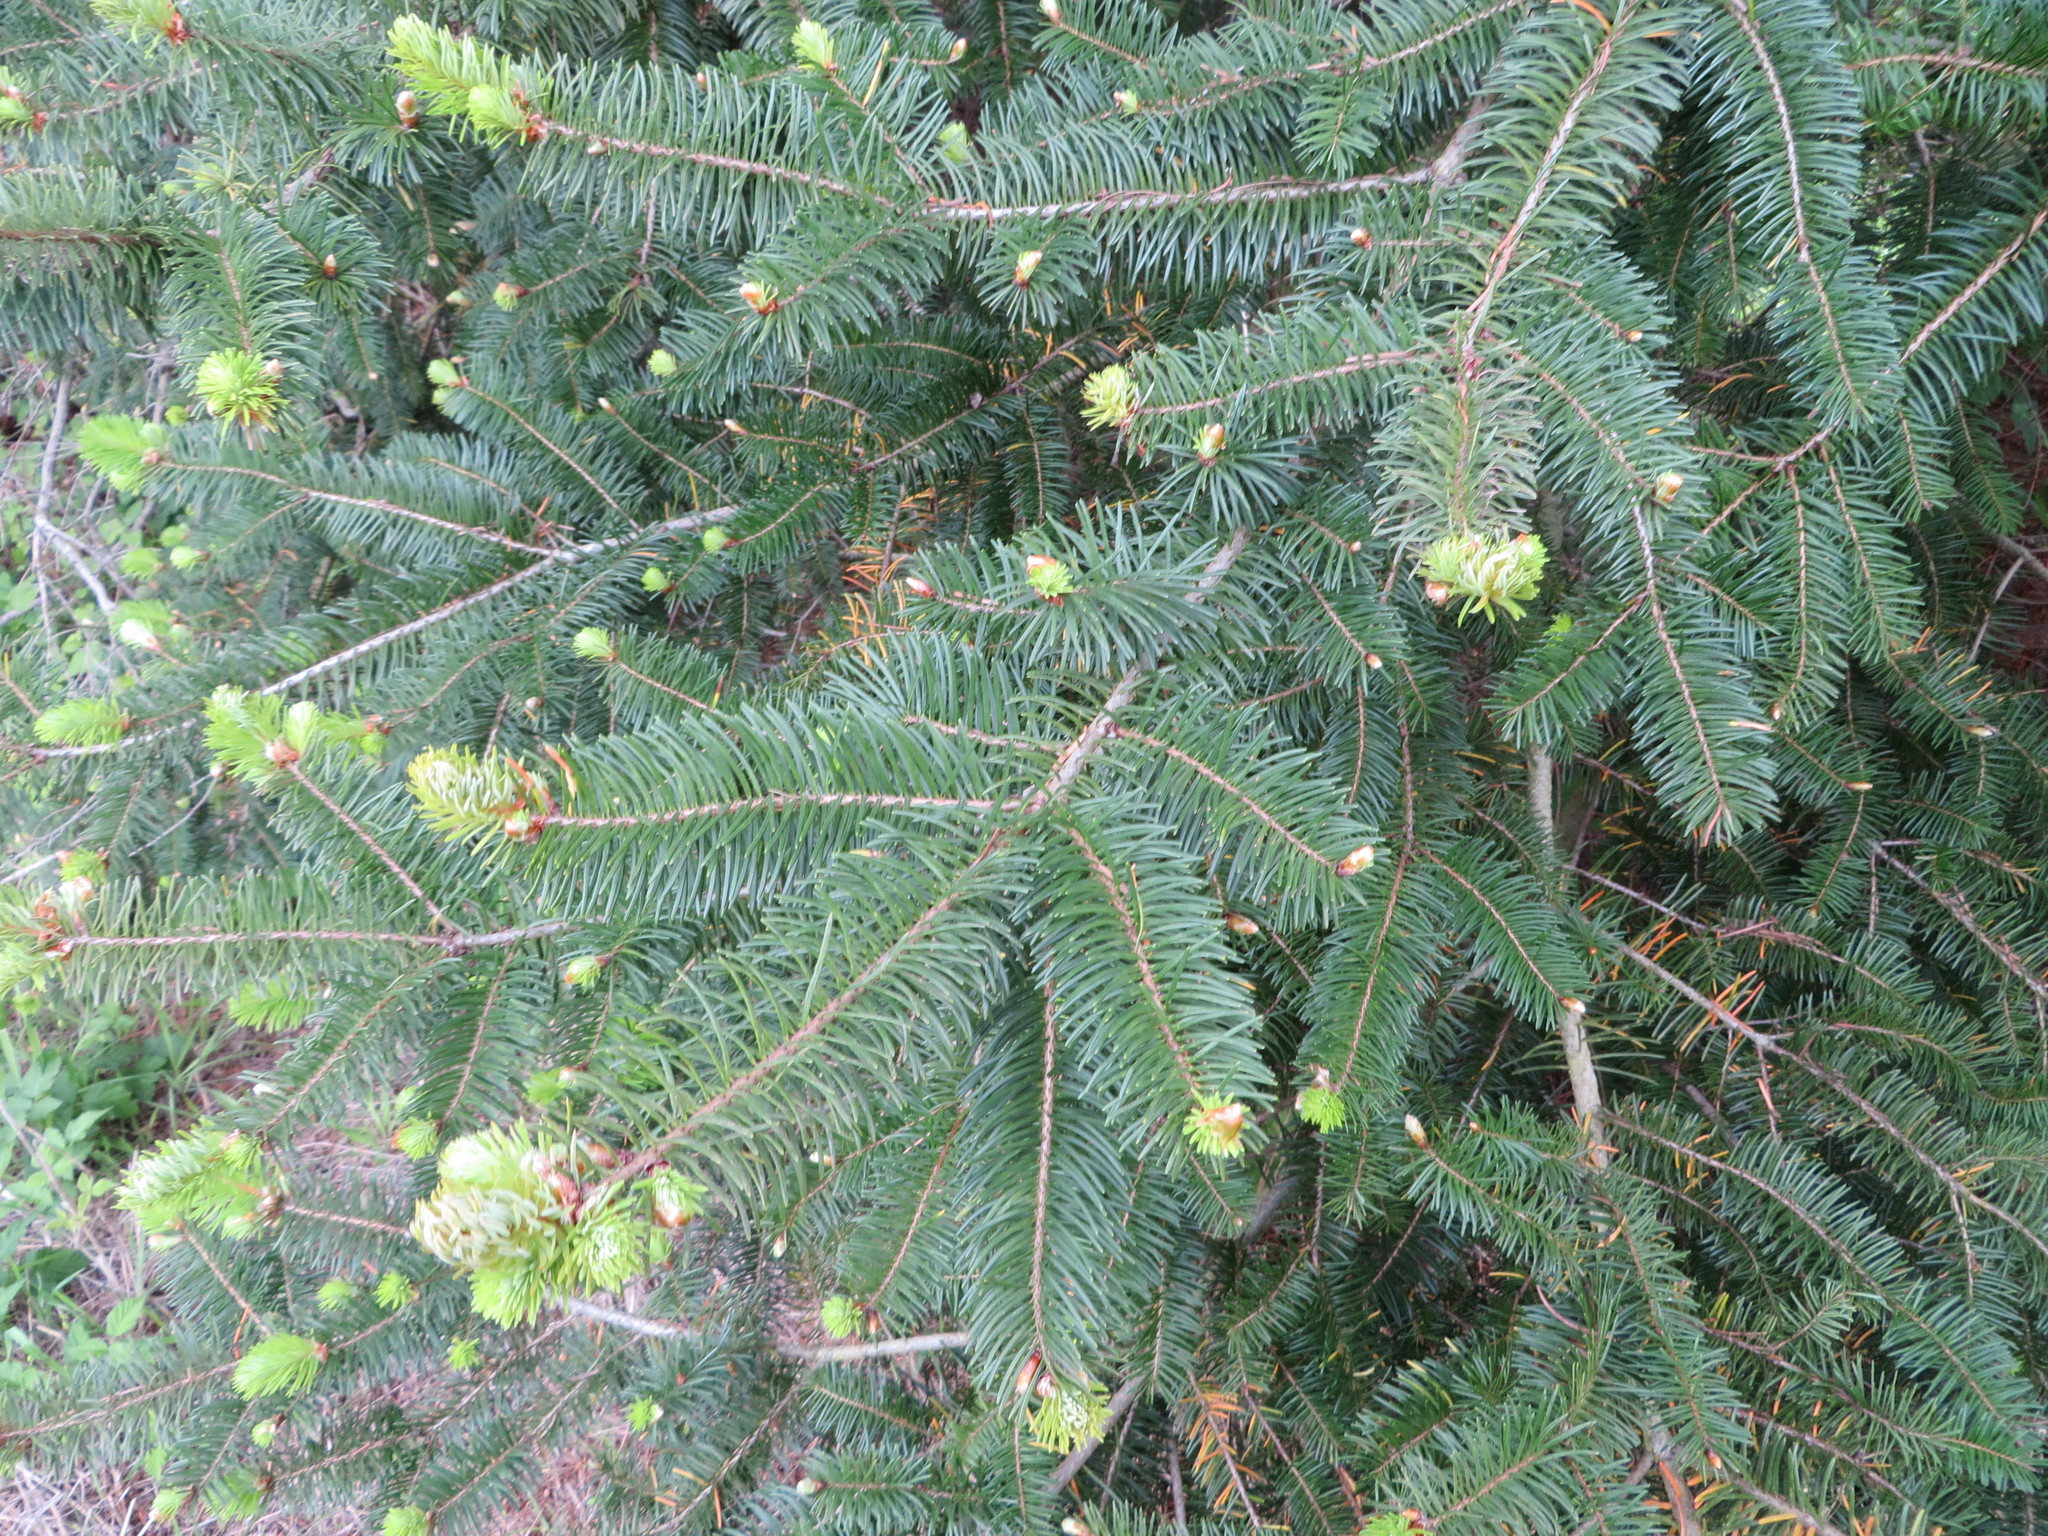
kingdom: Plantae
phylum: Tracheophyta
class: Pinopsida
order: Pinales
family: Pinaceae
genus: Pseudotsuga
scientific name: Pseudotsuga menziesii
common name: Douglas fir
